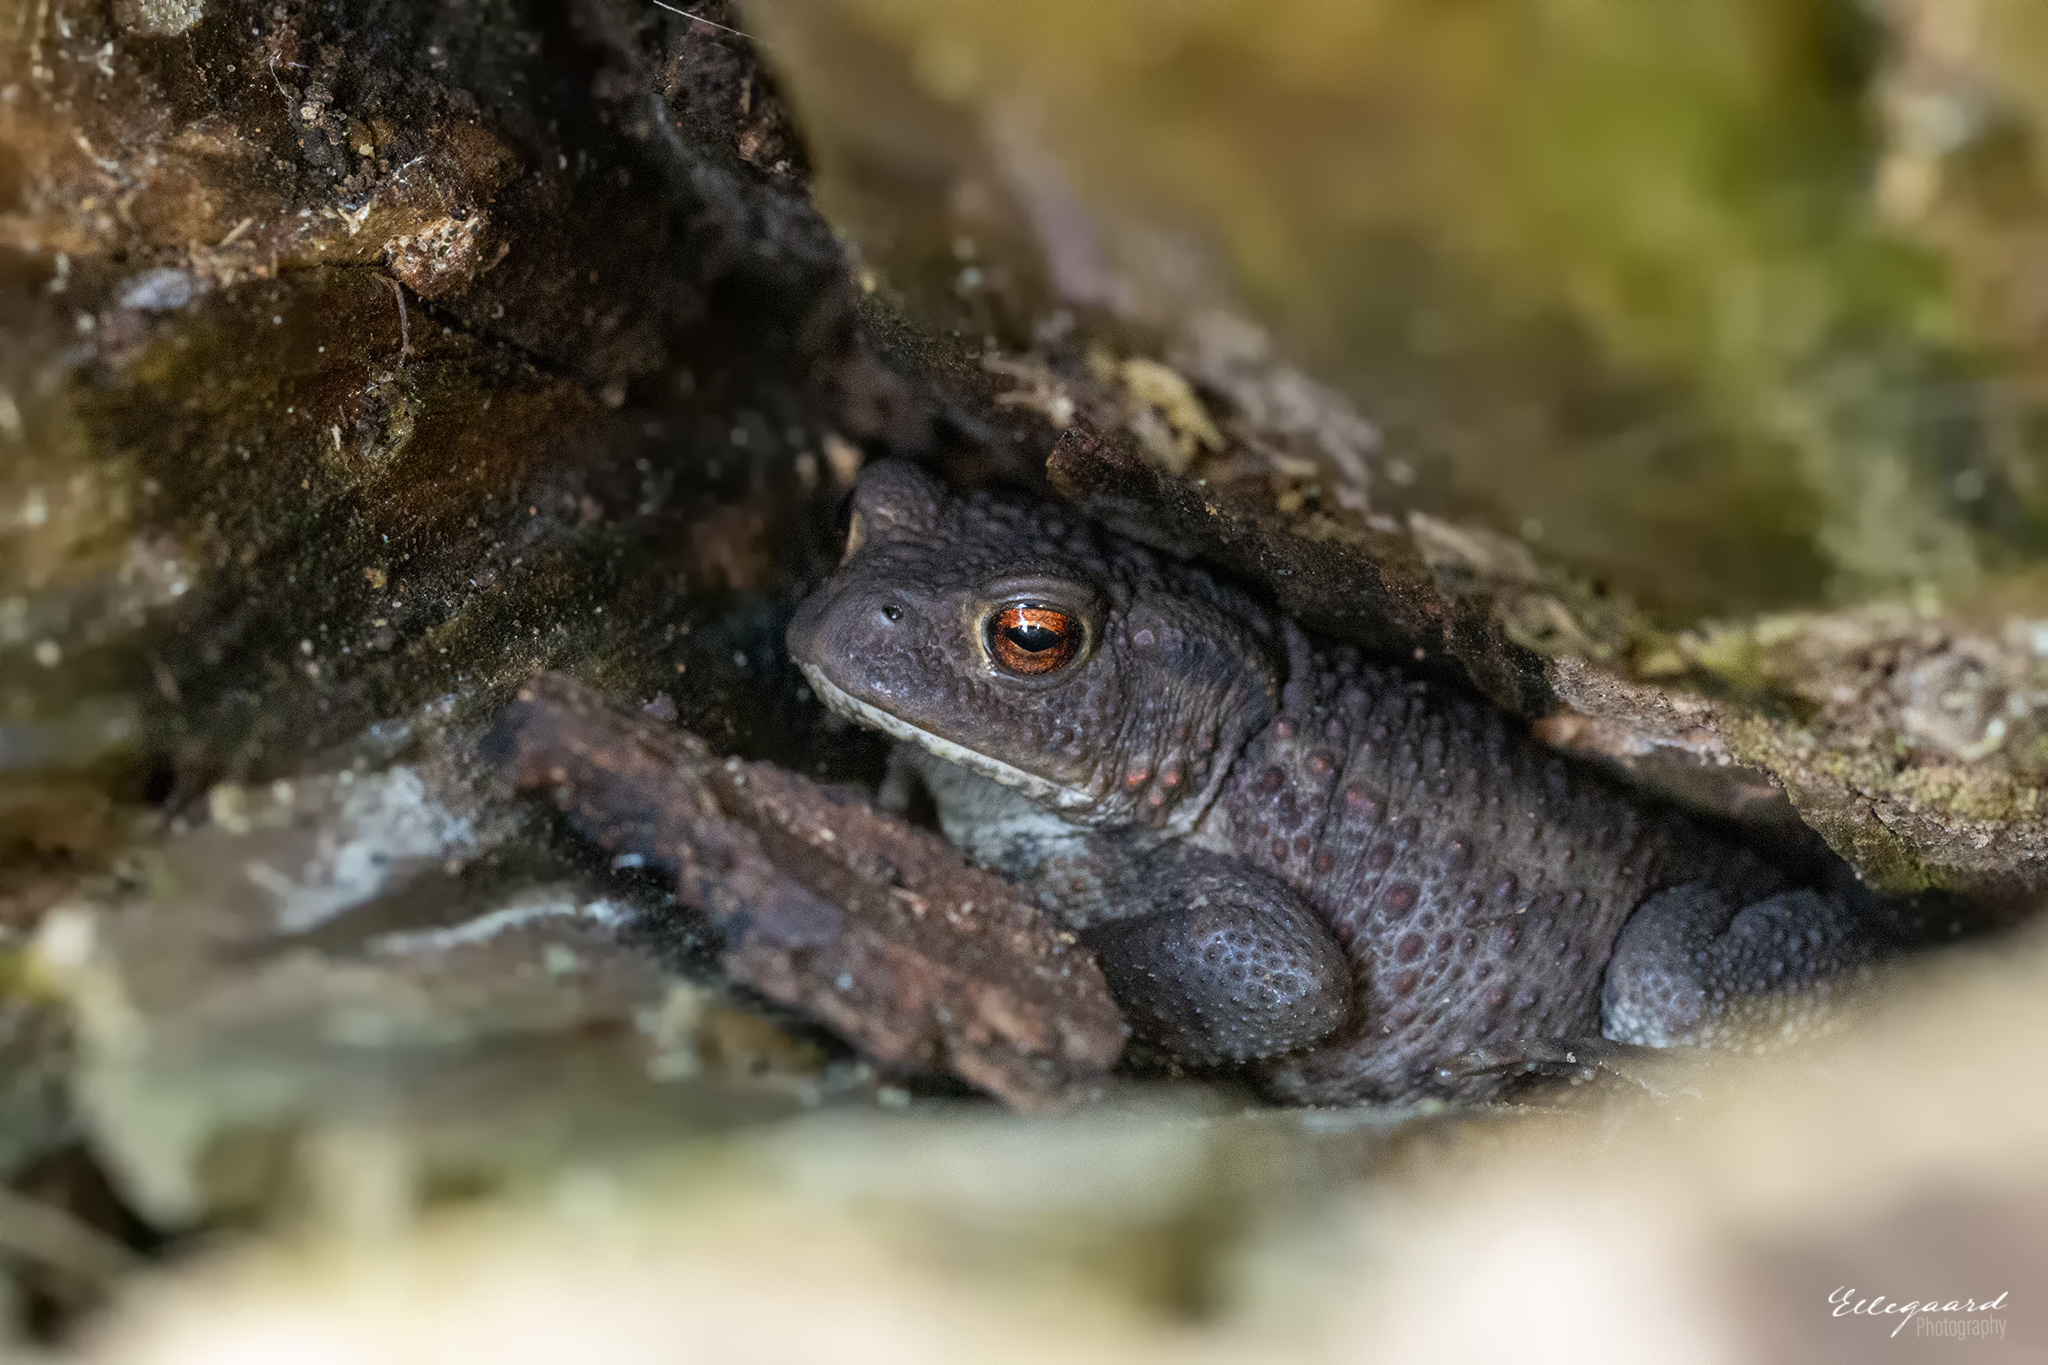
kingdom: Animalia
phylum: Chordata
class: Amphibia
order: Anura
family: Bufonidae
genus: Bufo
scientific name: Bufo bufo
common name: Common toad
